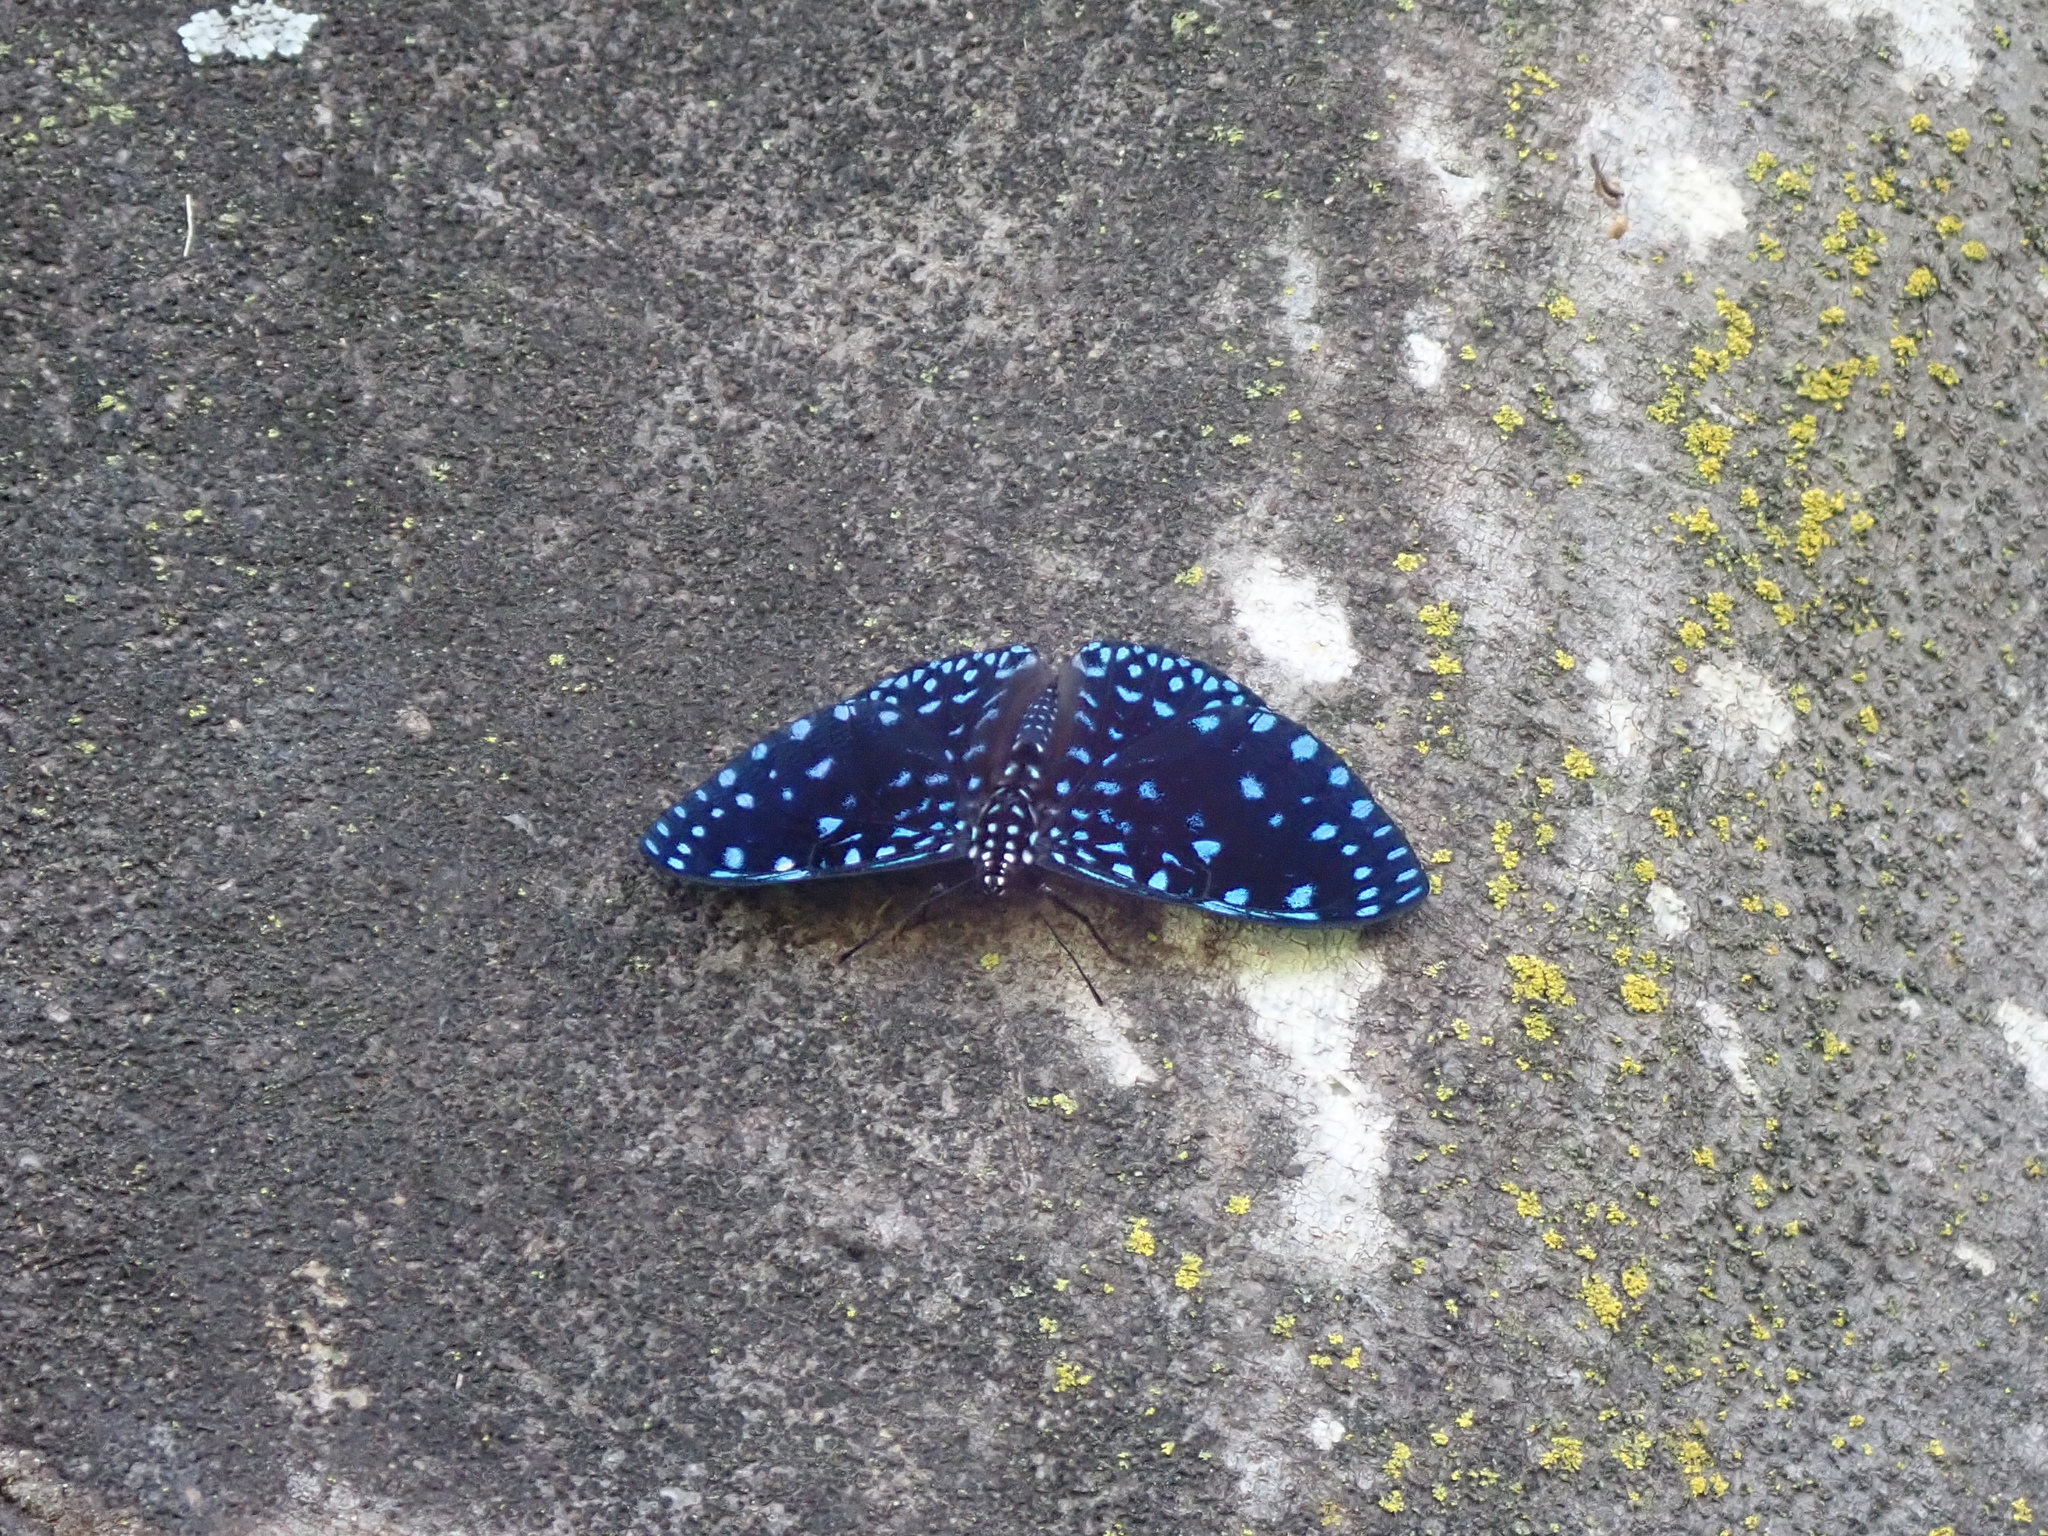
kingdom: Animalia
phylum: Arthropoda
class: Insecta
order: Lepidoptera
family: Nymphalidae
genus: Hamadryas
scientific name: Hamadryas laodamia
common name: Starry night cracker
